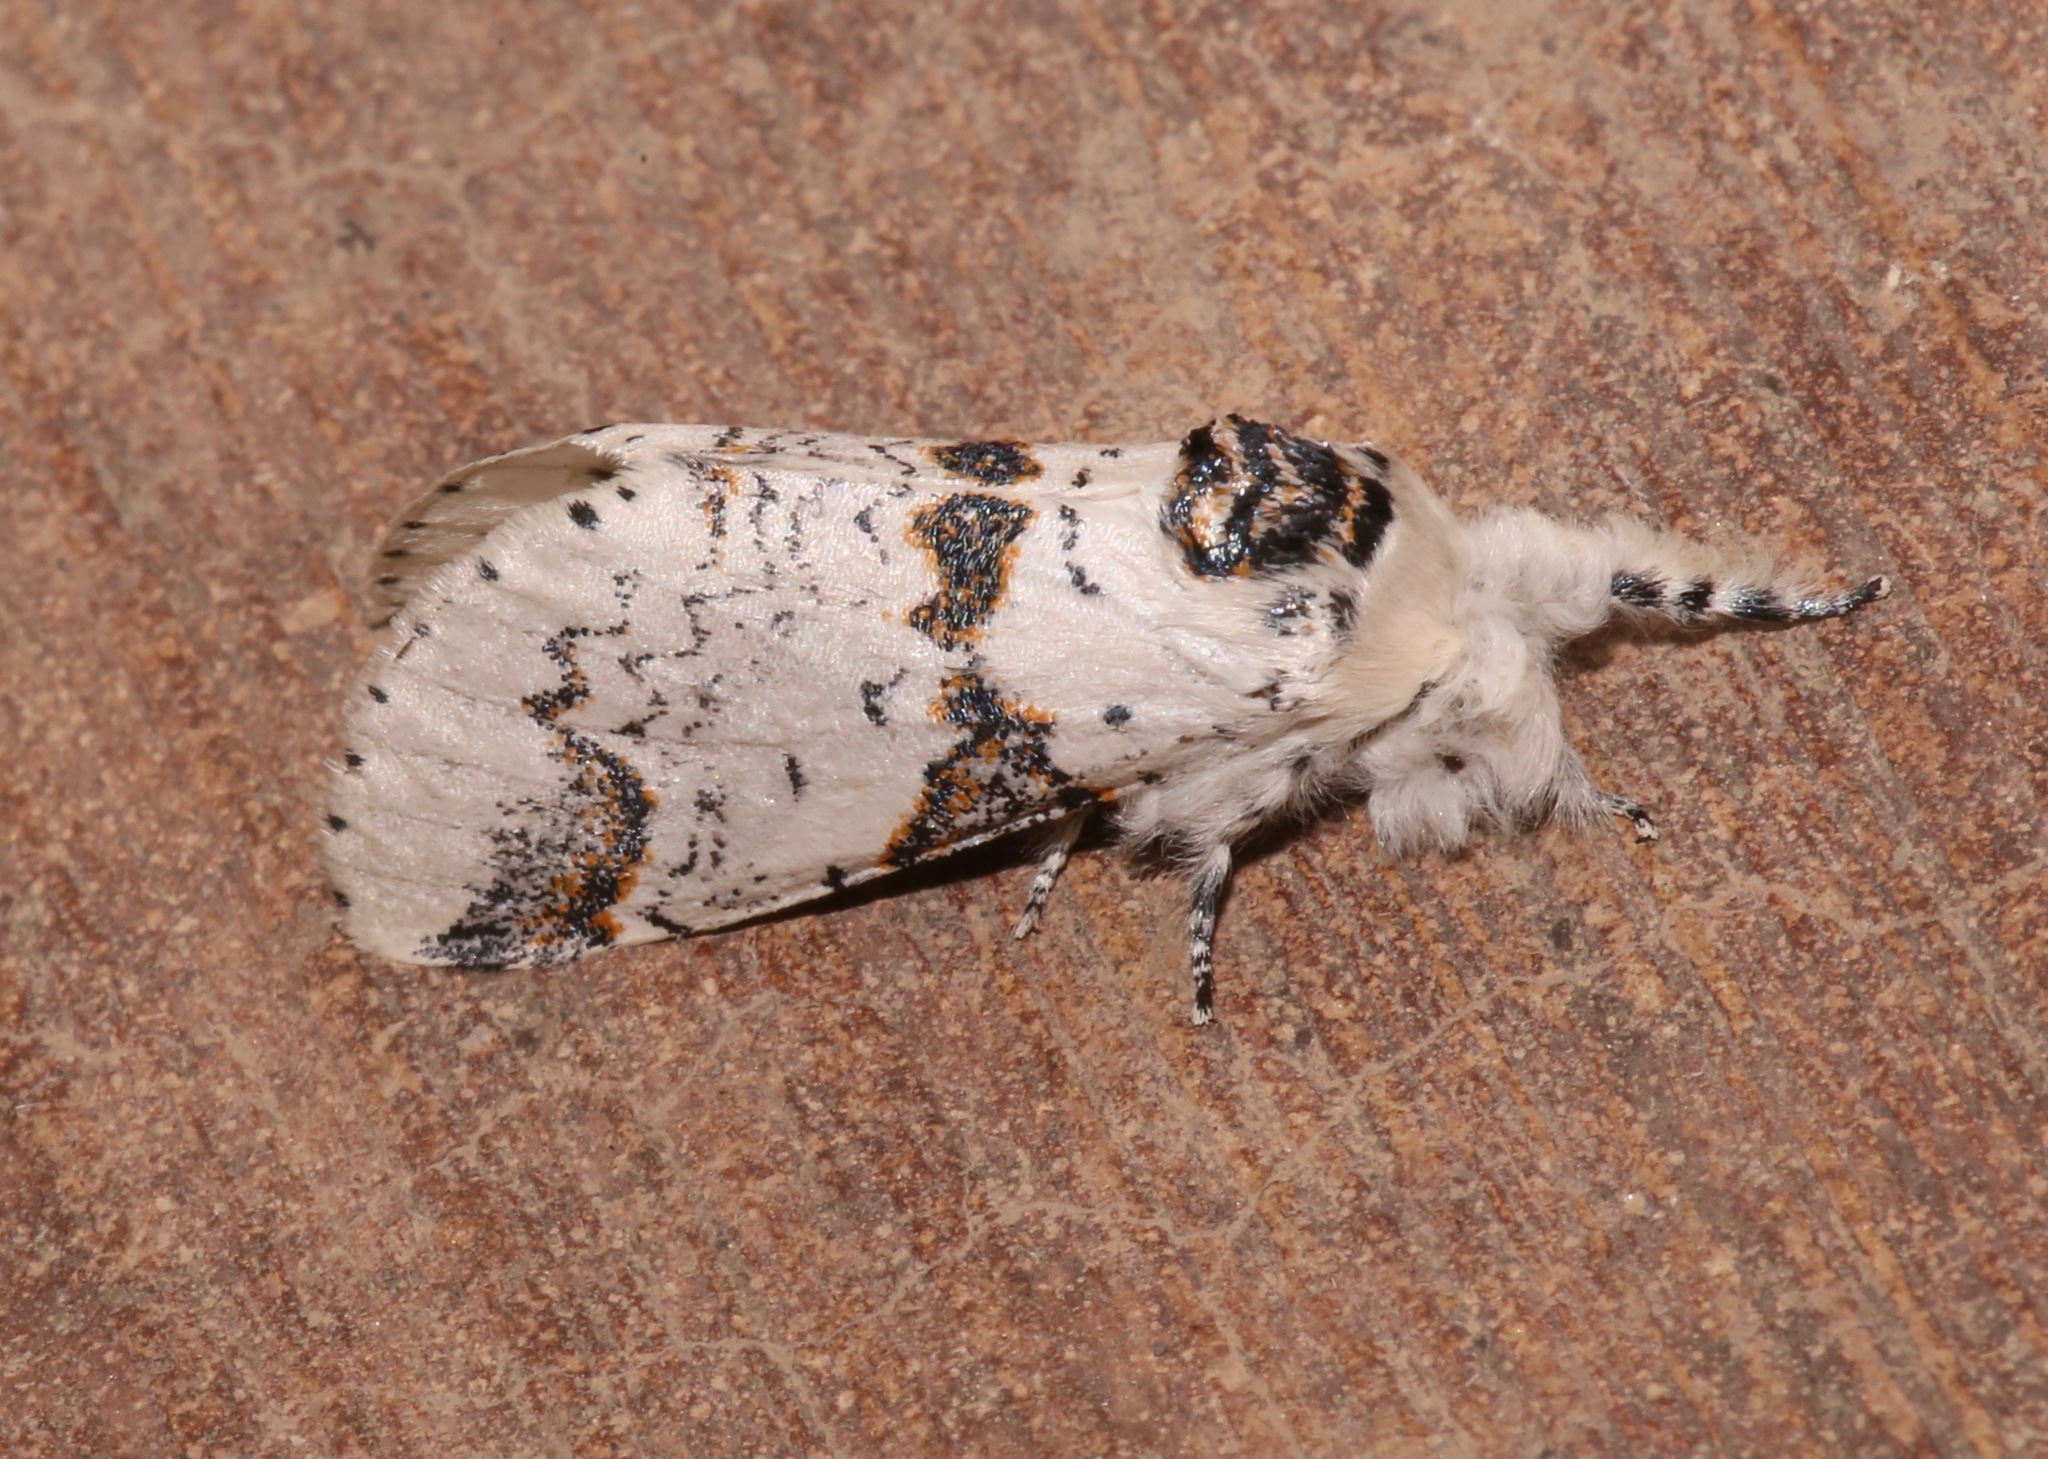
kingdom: Animalia
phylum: Arthropoda
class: Insecta
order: Lepidoptera
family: Notodontidae
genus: Furcula
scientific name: Furcula scolopendrina
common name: Zigzag furcula moth
